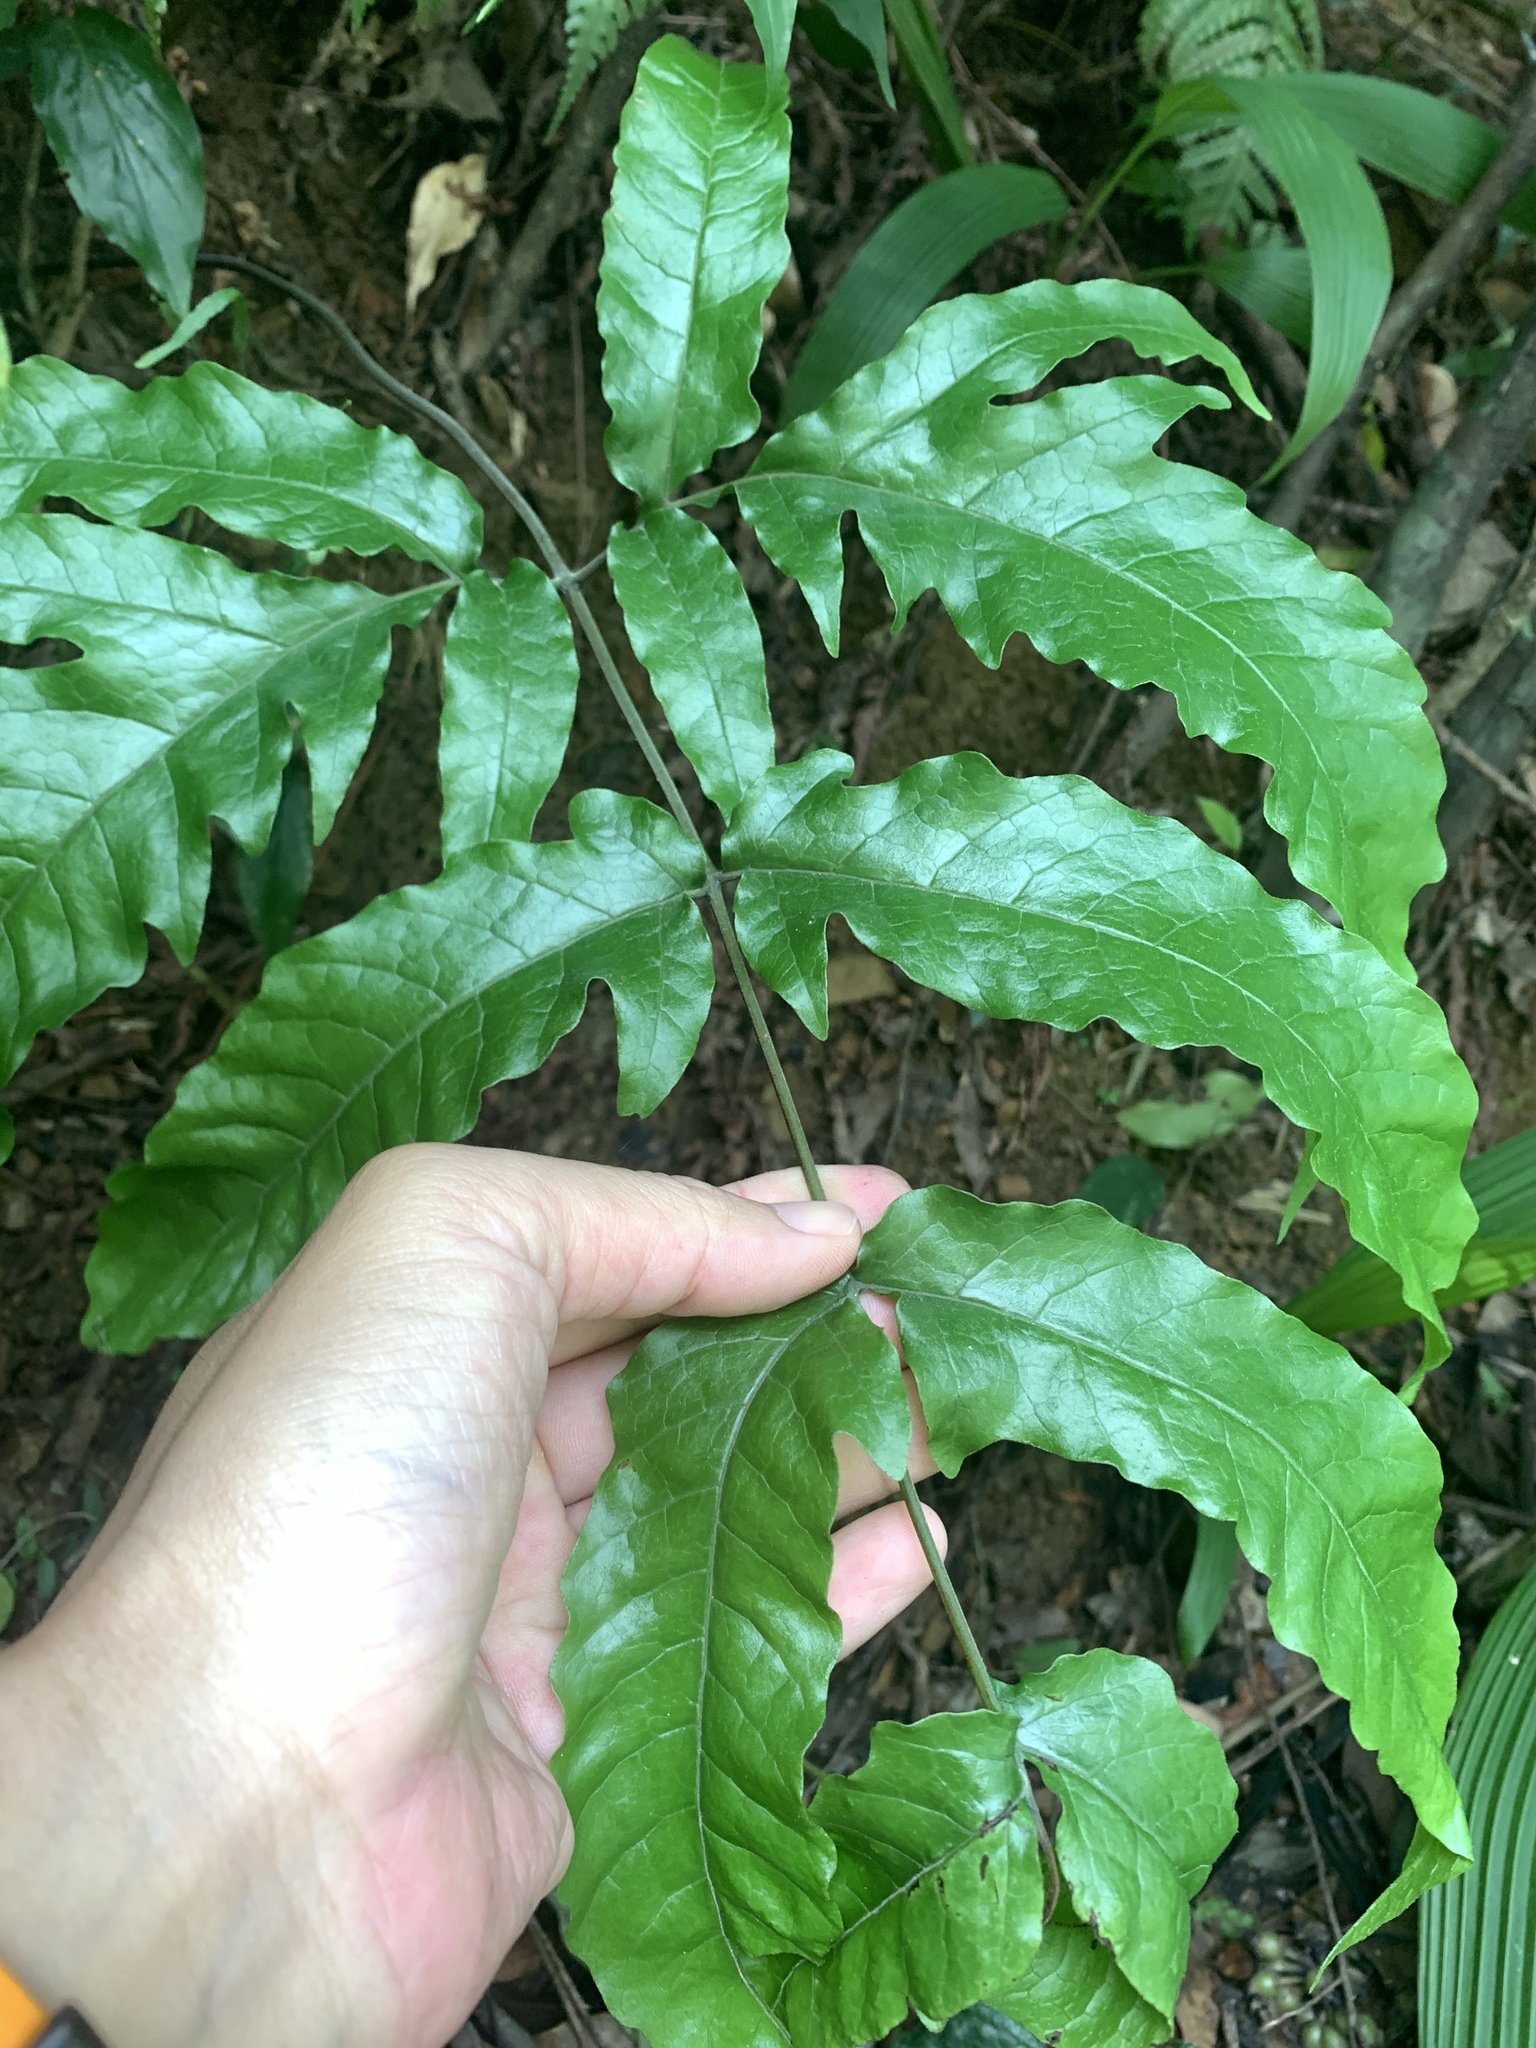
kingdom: Plantae
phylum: Tracheophyta
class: Polypodiopsida
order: Polypodiales
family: Tectariaceae
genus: Tectaria
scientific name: Tectaria phaeocaulis
